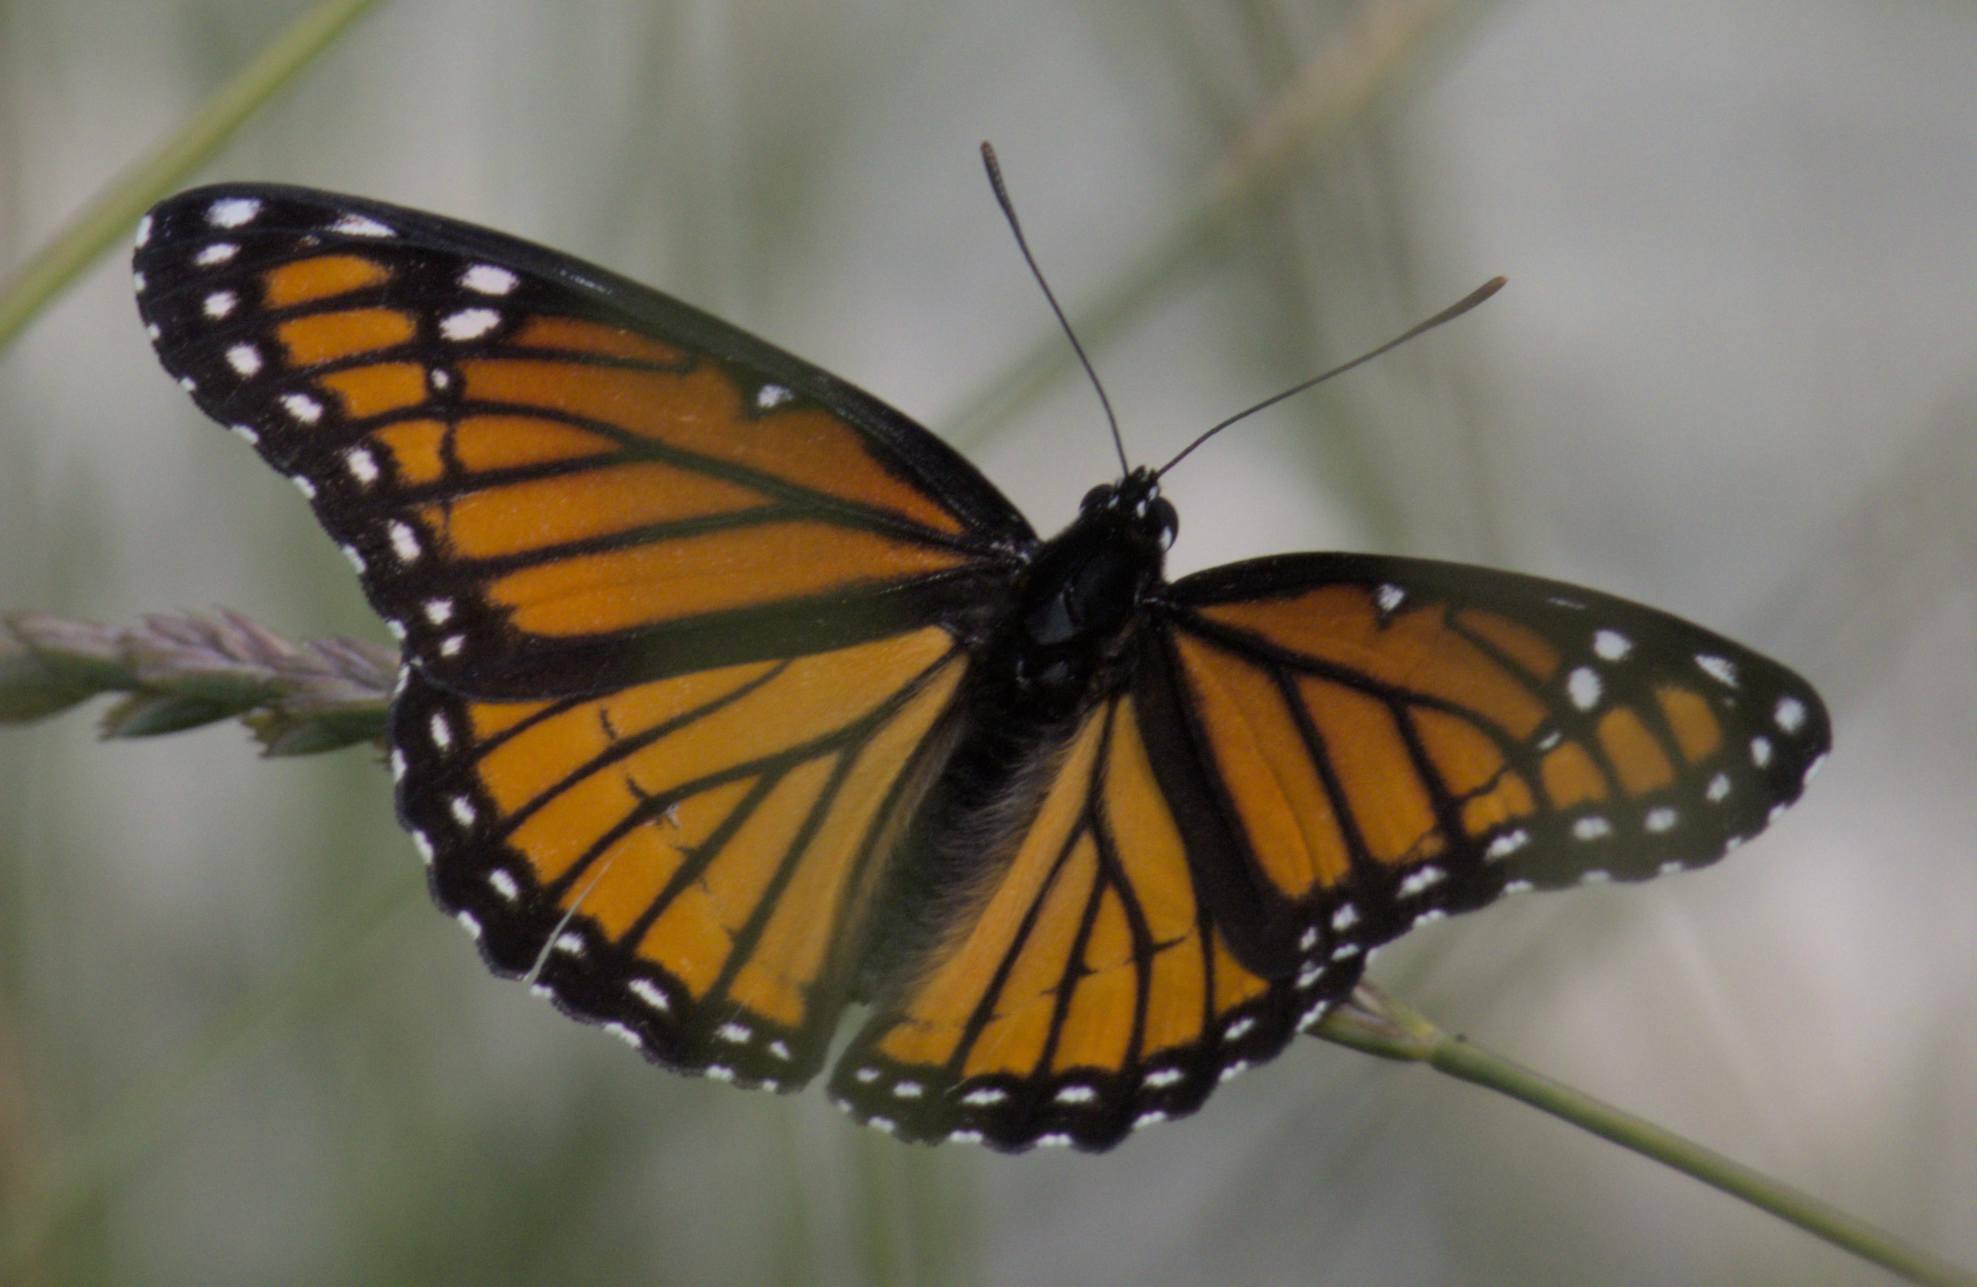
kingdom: Animalia
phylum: Arthropoda
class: Insecta
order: Lepidoptera
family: Nymphalidae
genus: Limenitis
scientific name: Limenitis archippus
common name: Viceroy
